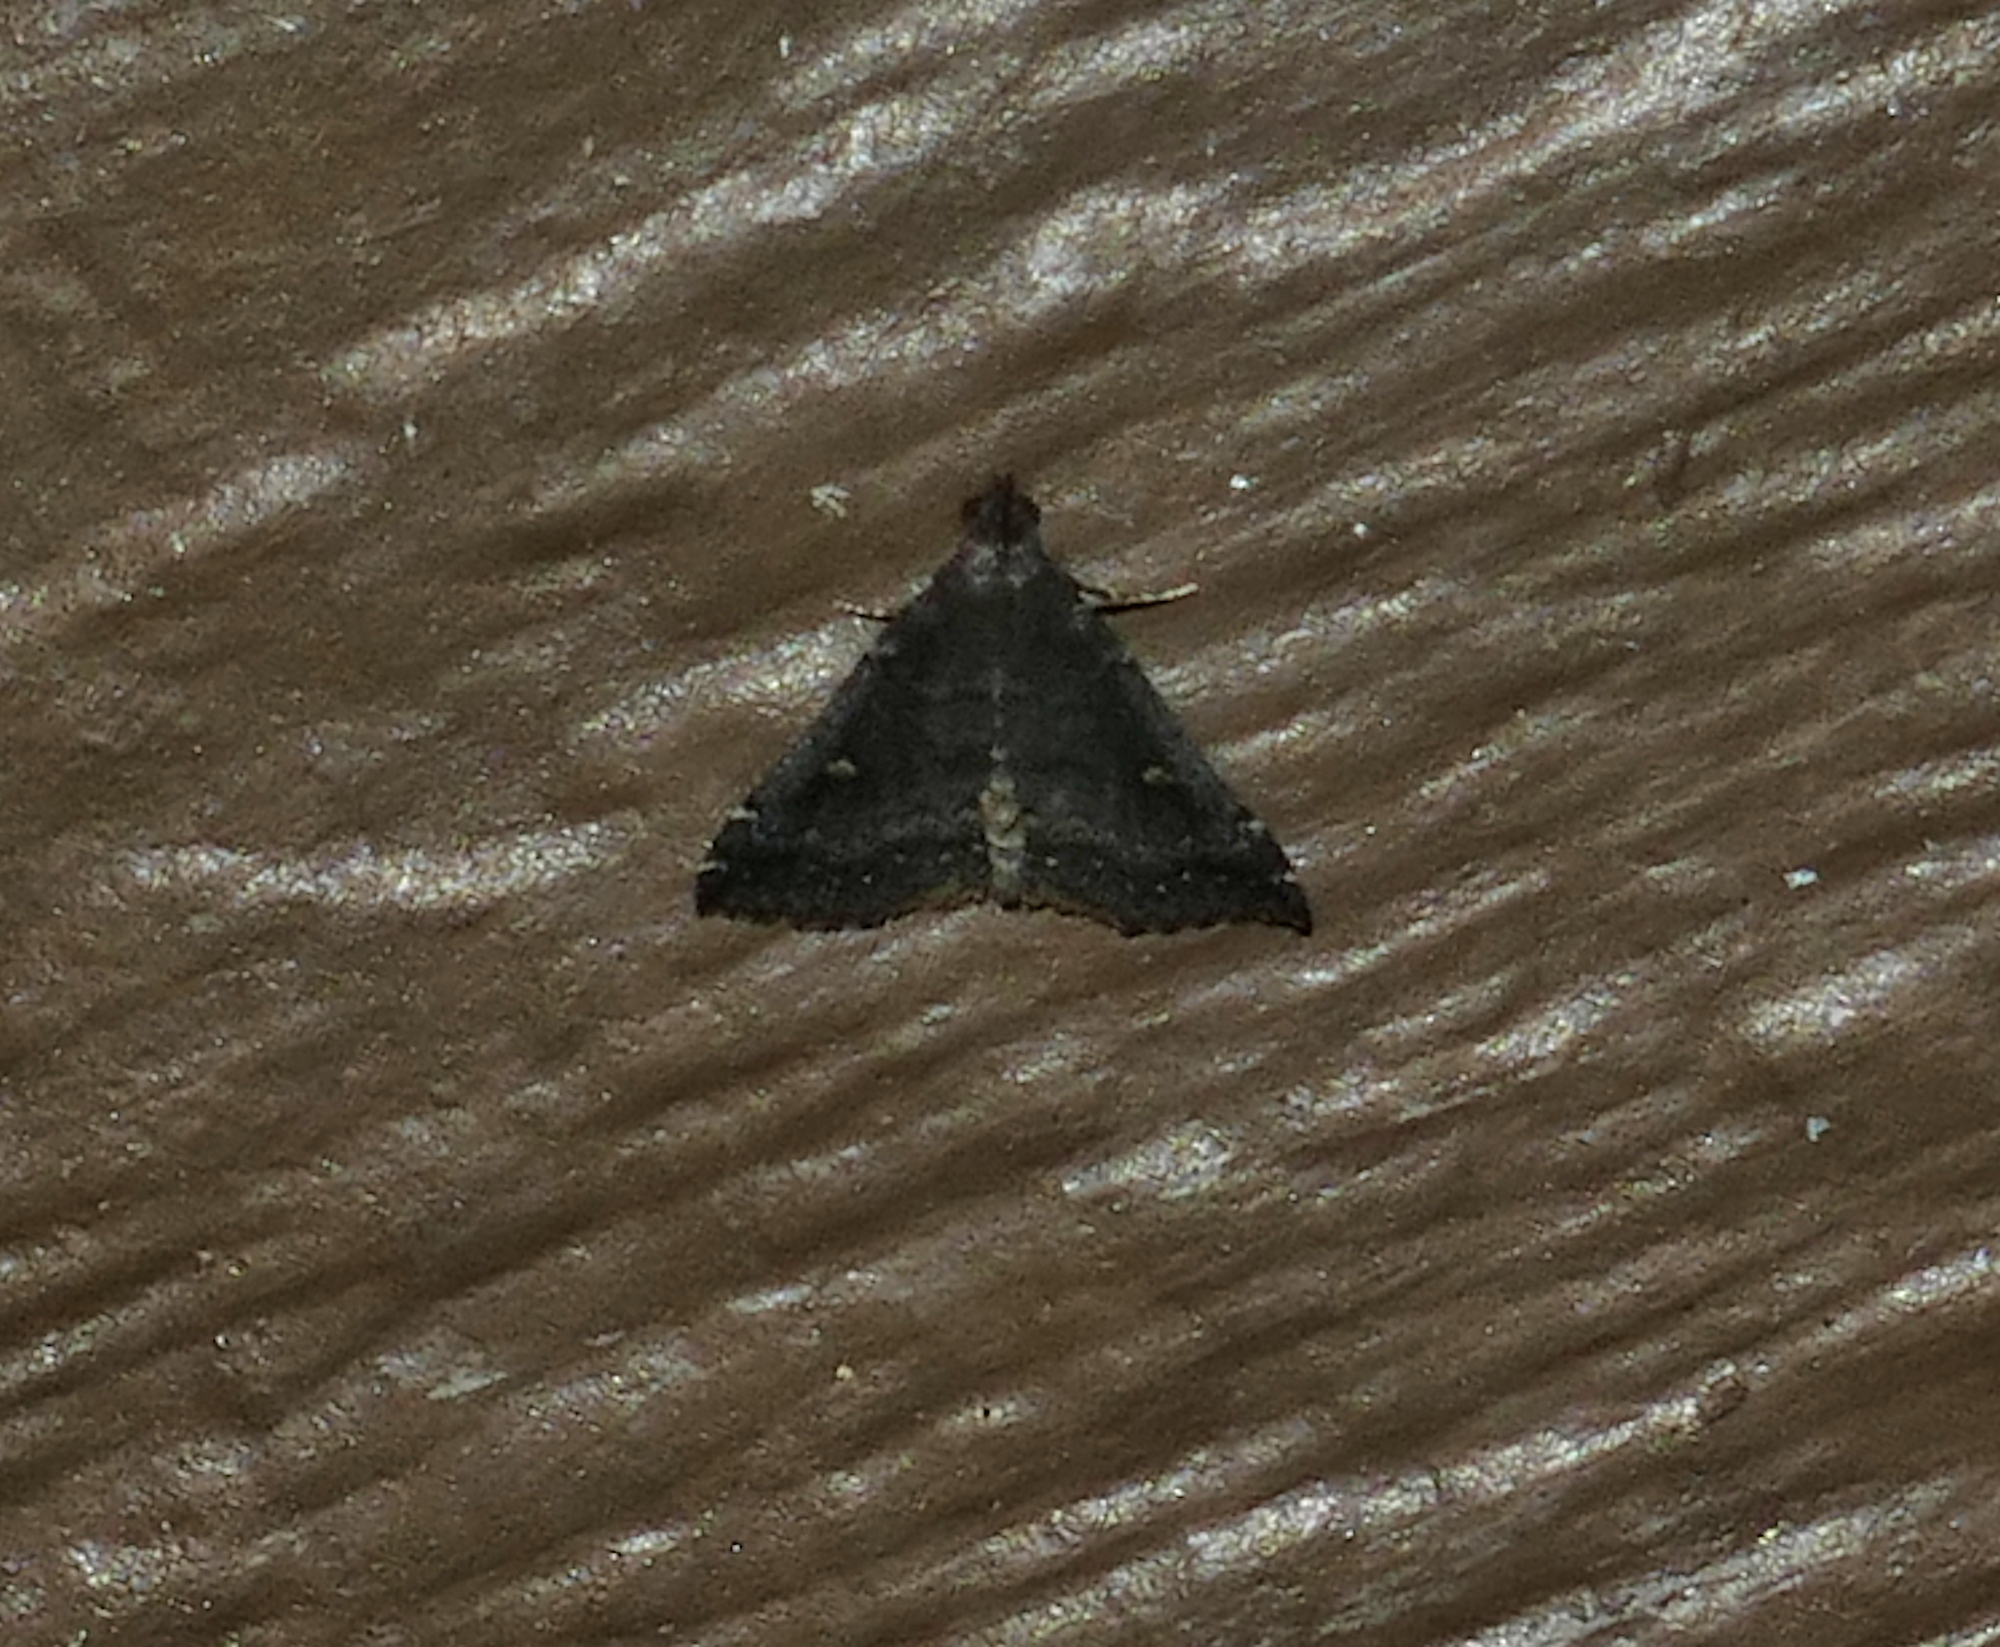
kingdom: Animalia
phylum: Arthropoda
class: Insecta
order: Lepidoptera
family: Erebidae
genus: Tetanolita
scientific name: Tetanolita mynesalis
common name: Smoky tetanolita moth
